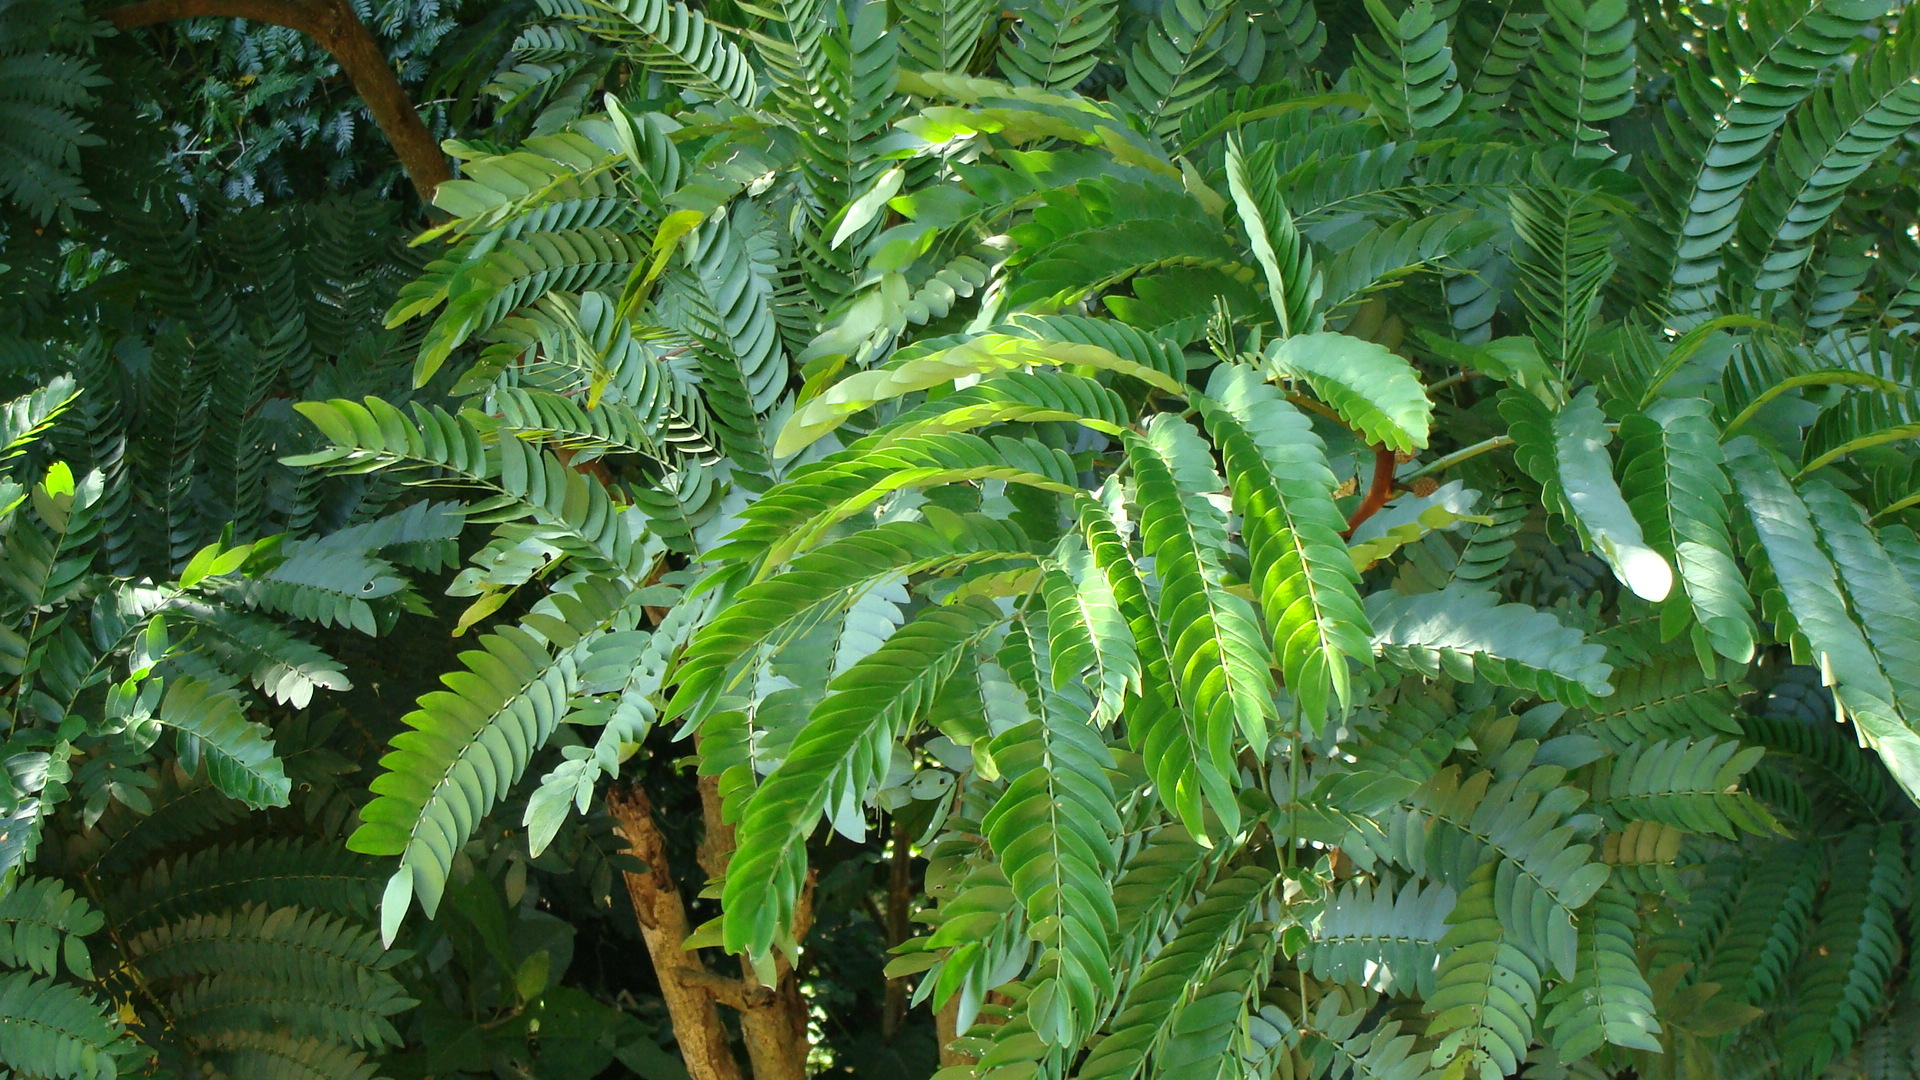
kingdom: Plantae
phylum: Tracheophyta
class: Magnoliopsida
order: Fabales
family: Fabaceae
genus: Cojoba
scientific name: Cojoba sophorocarpa
